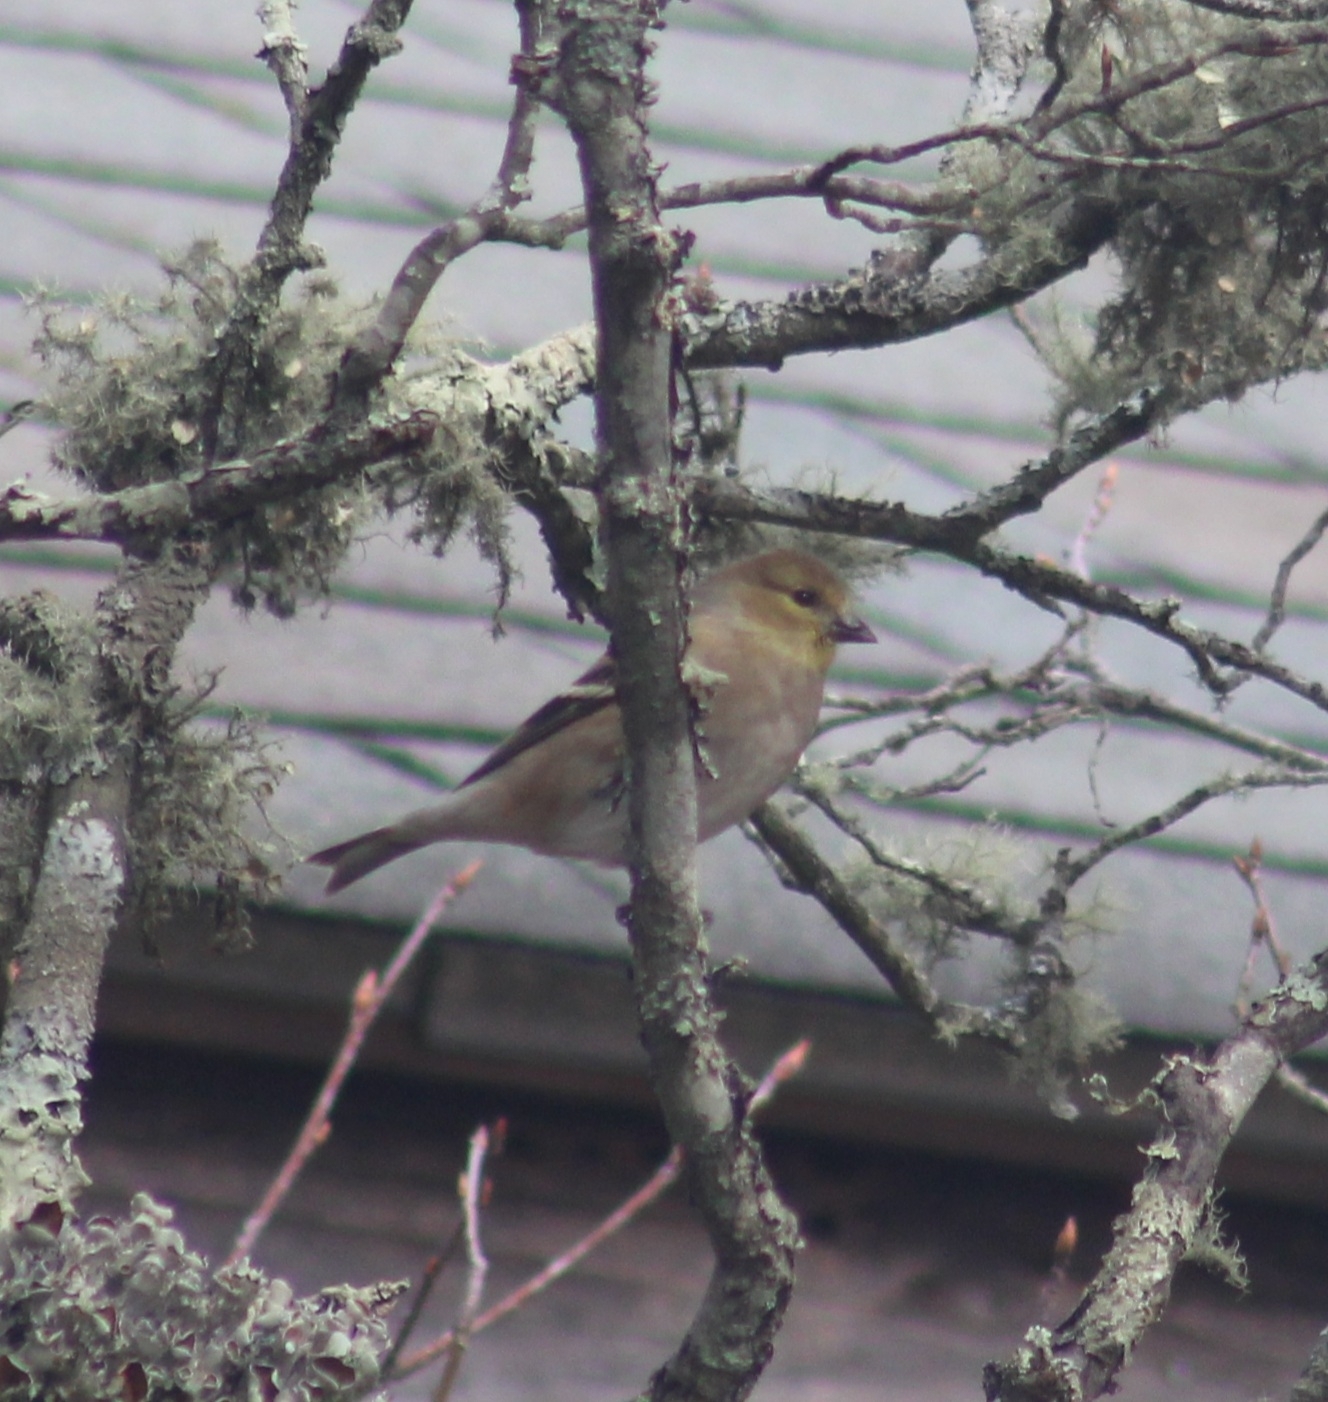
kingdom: Animalia
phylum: Chordata
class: Aves
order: Passeriformes
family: Fringillidae
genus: Spinus
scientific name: Spinus tristis
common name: American goldfinch
